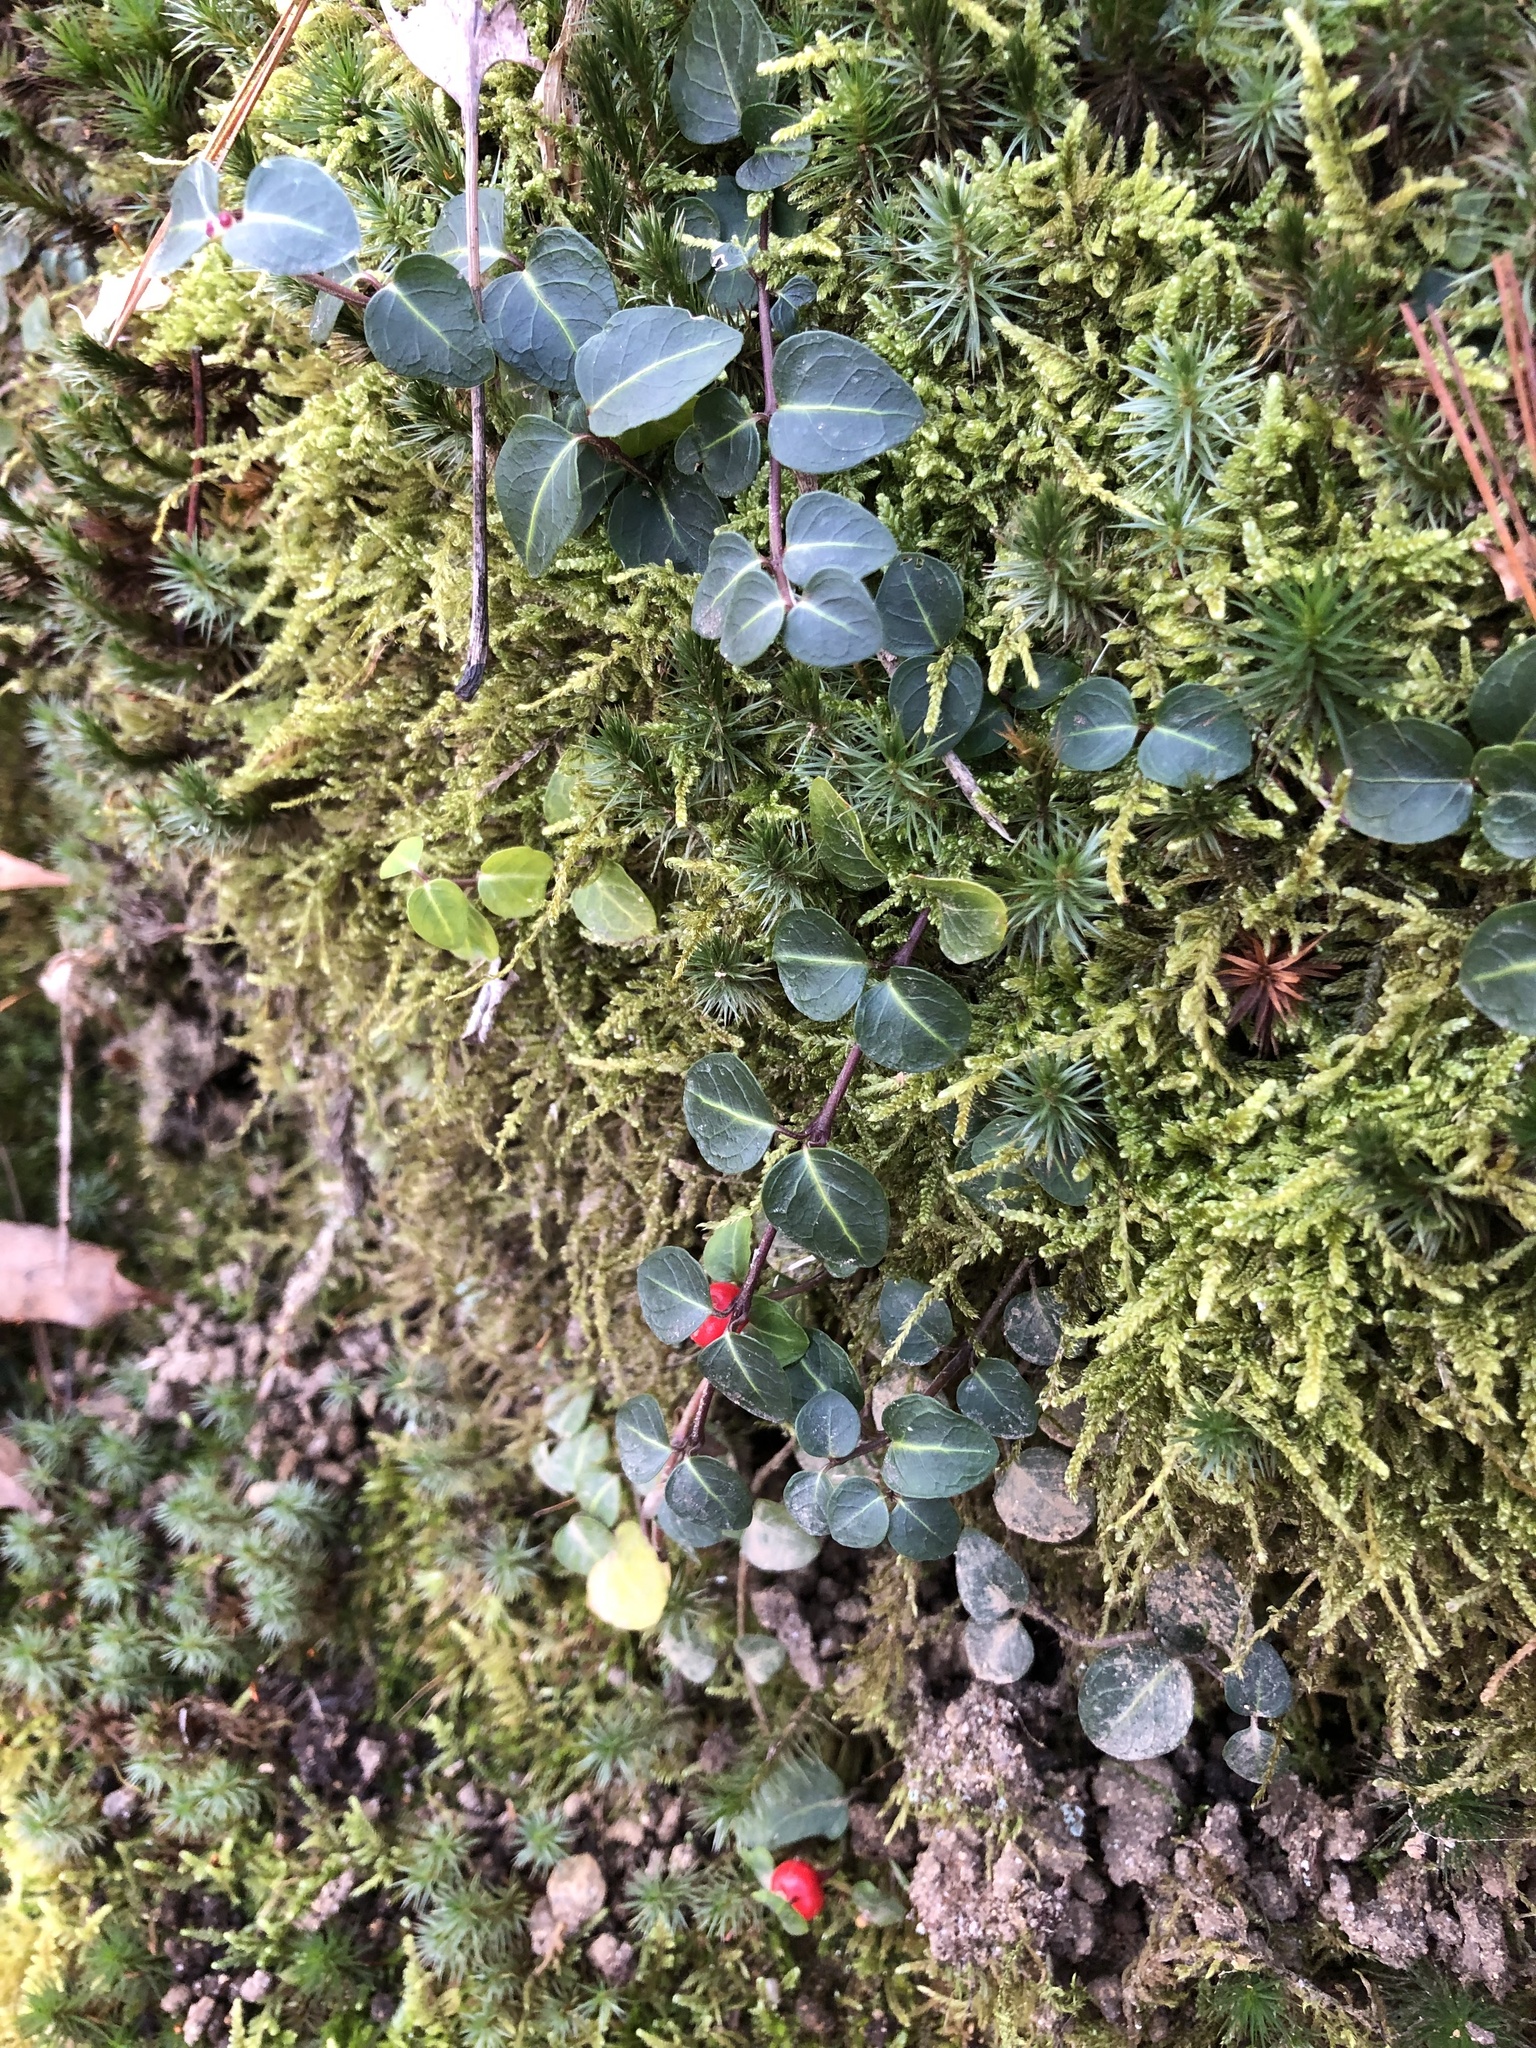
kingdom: Plantae
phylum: Tracheophyta
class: Magnoliopsida
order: Gentianales
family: Rubiaceae
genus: Mitchella
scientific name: Mitchella repens
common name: Partridge-berry
